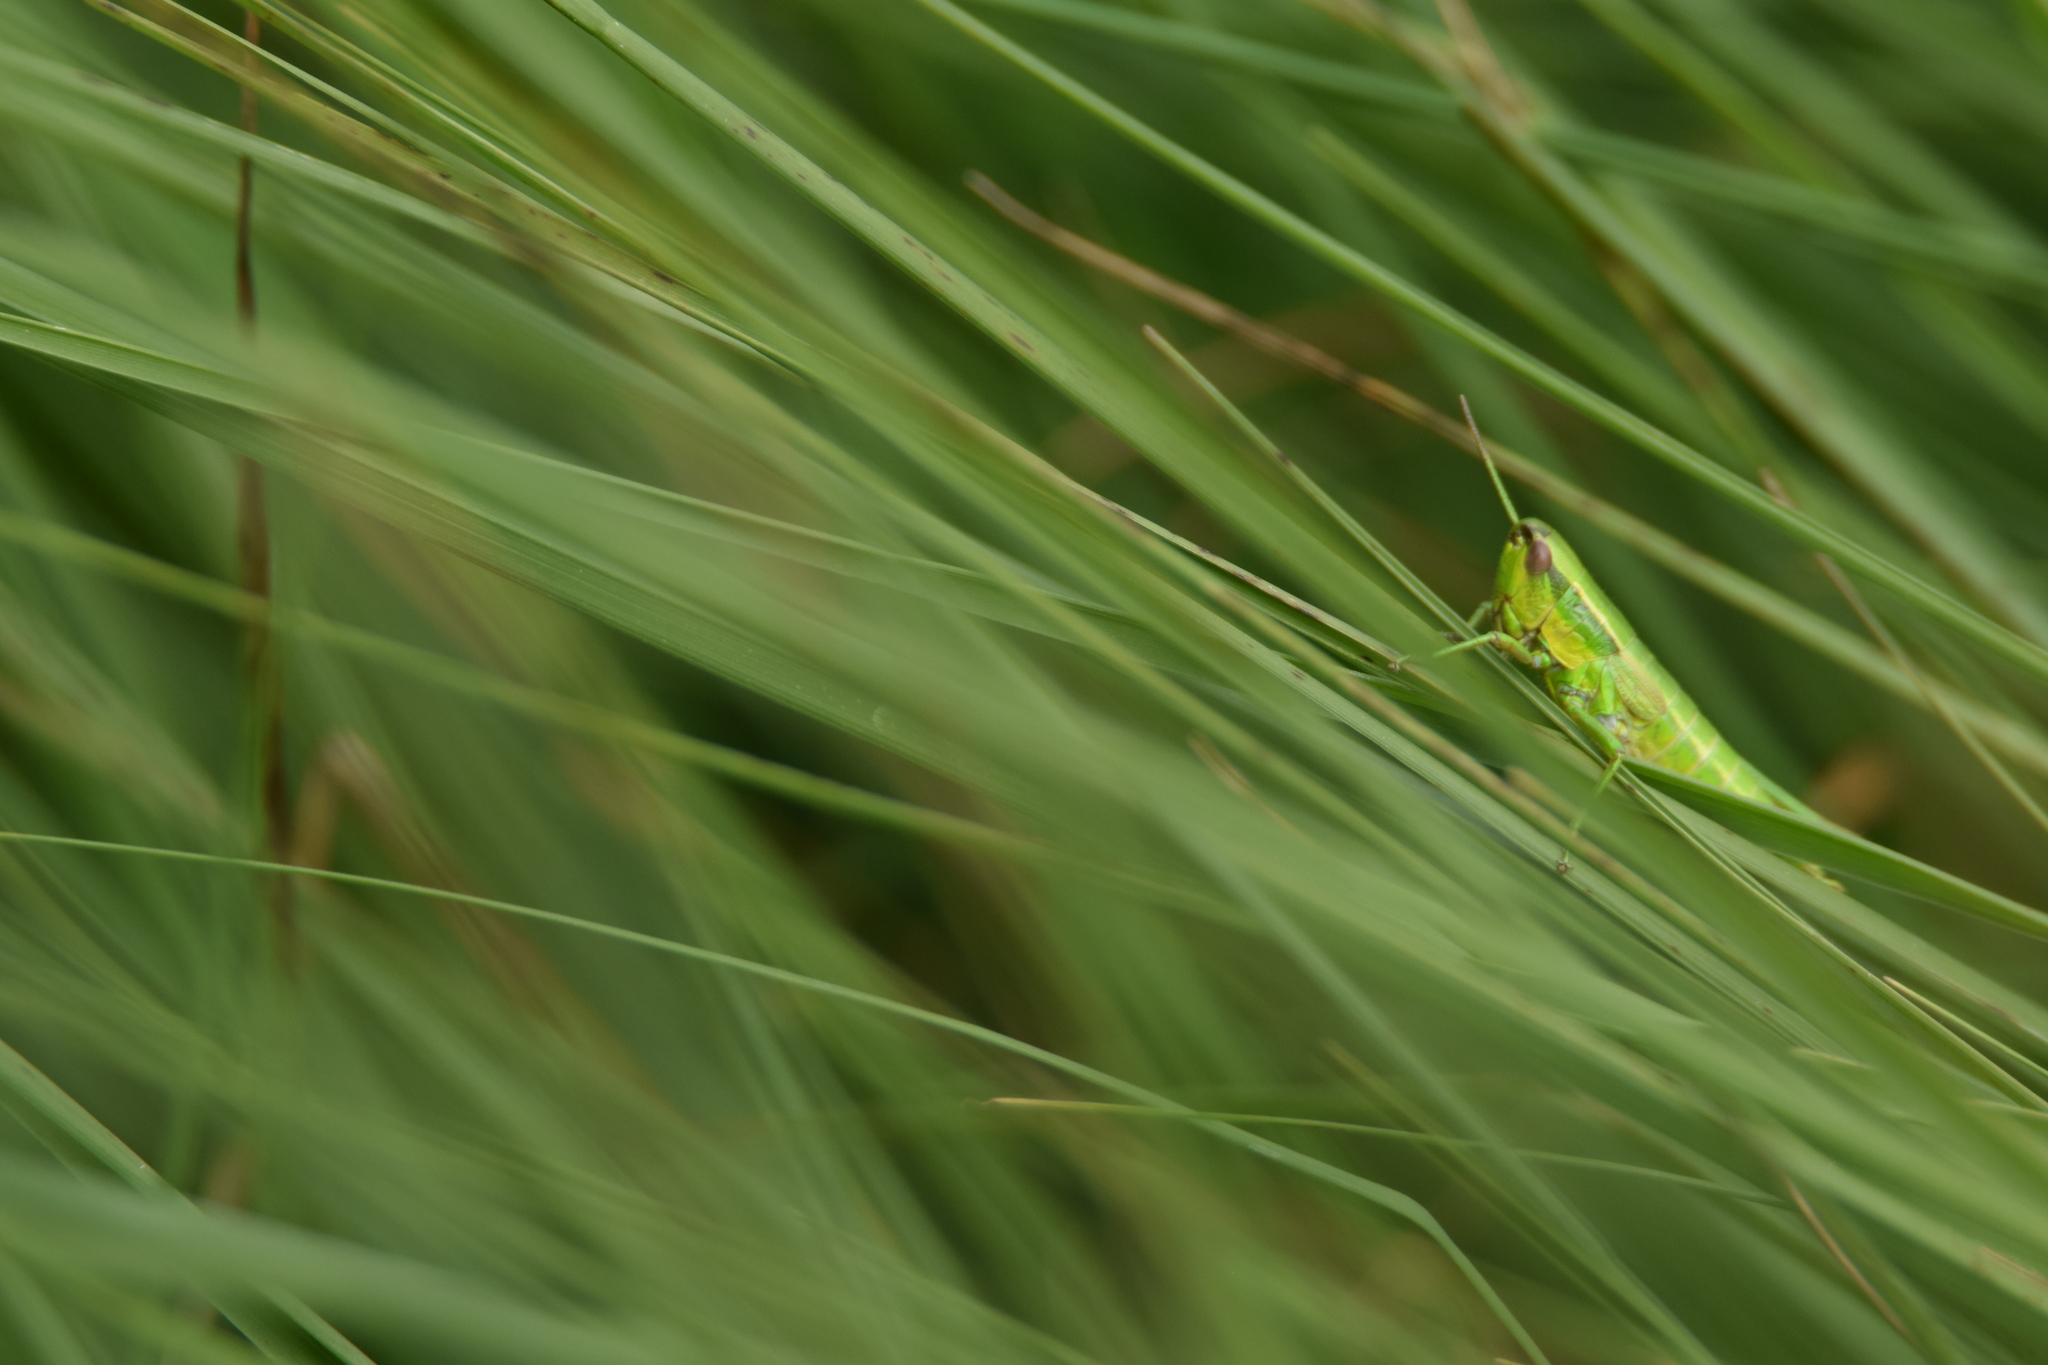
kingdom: Animalia
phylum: Arthropoda
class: Insecta
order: Orthoptera
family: Acrididae
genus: Euthystira
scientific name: Euthystira brachyptera
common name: Small gold grasshopper
